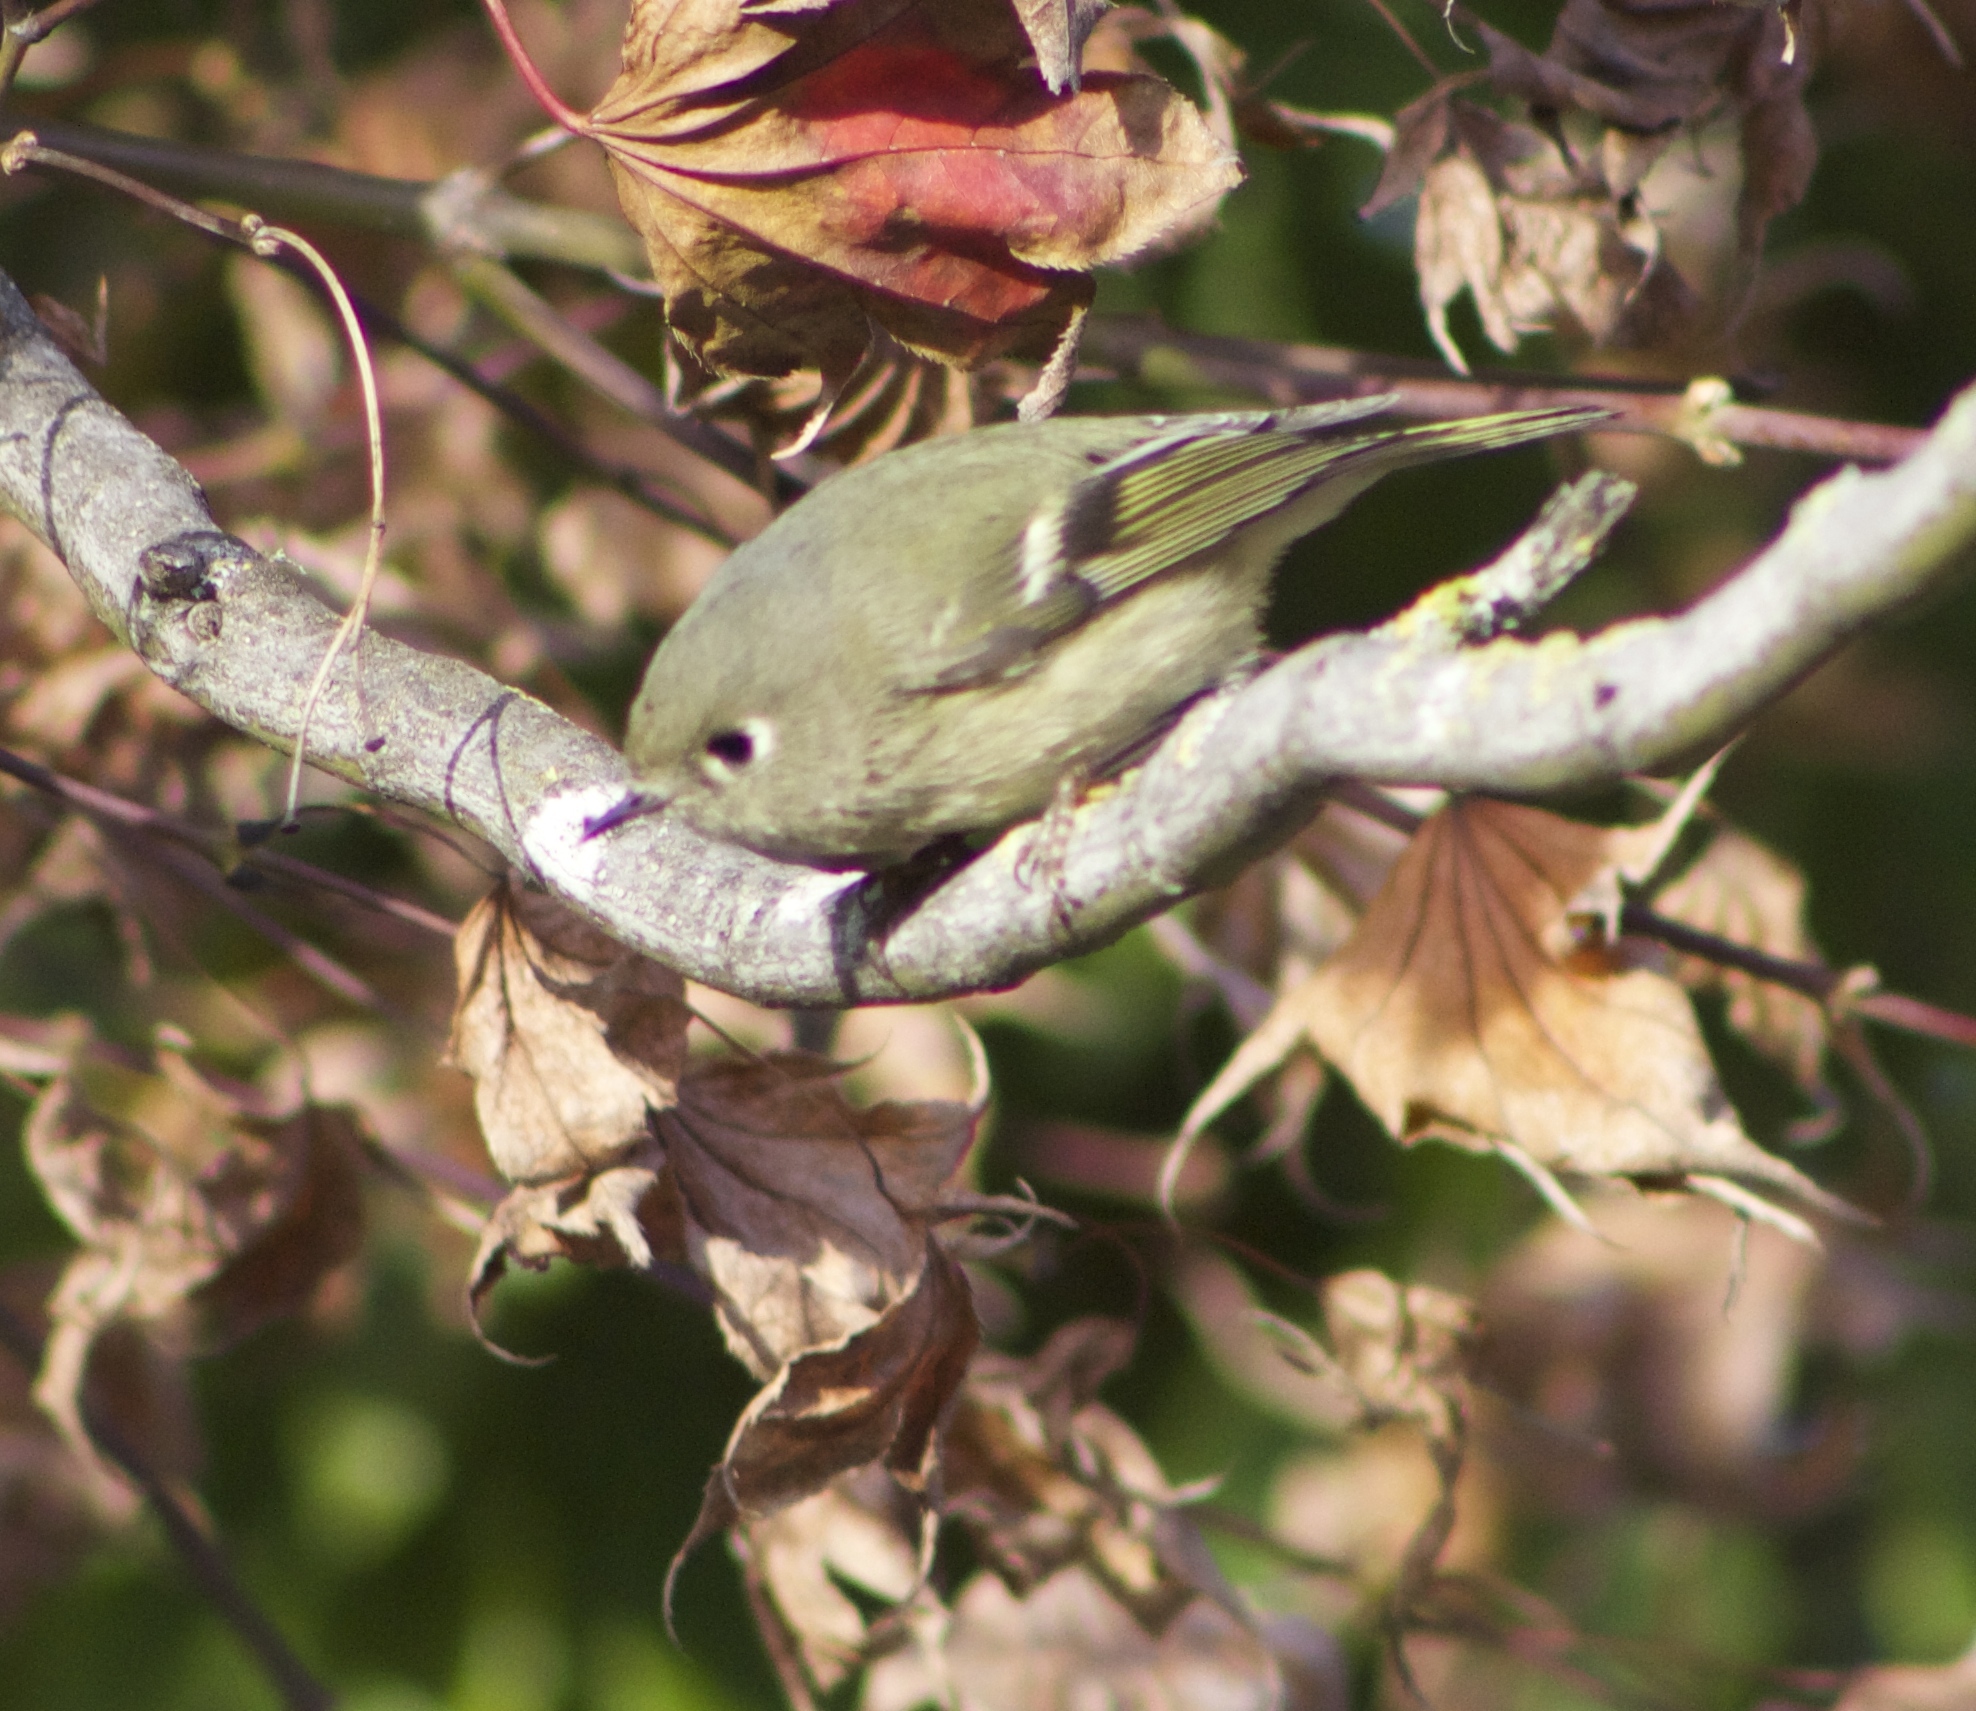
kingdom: Animalia
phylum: Chordata
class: Aves
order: Passeriformes
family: Regulidae
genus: Regulus
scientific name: Regulus calendula
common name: Ruby-crowned kinglet
